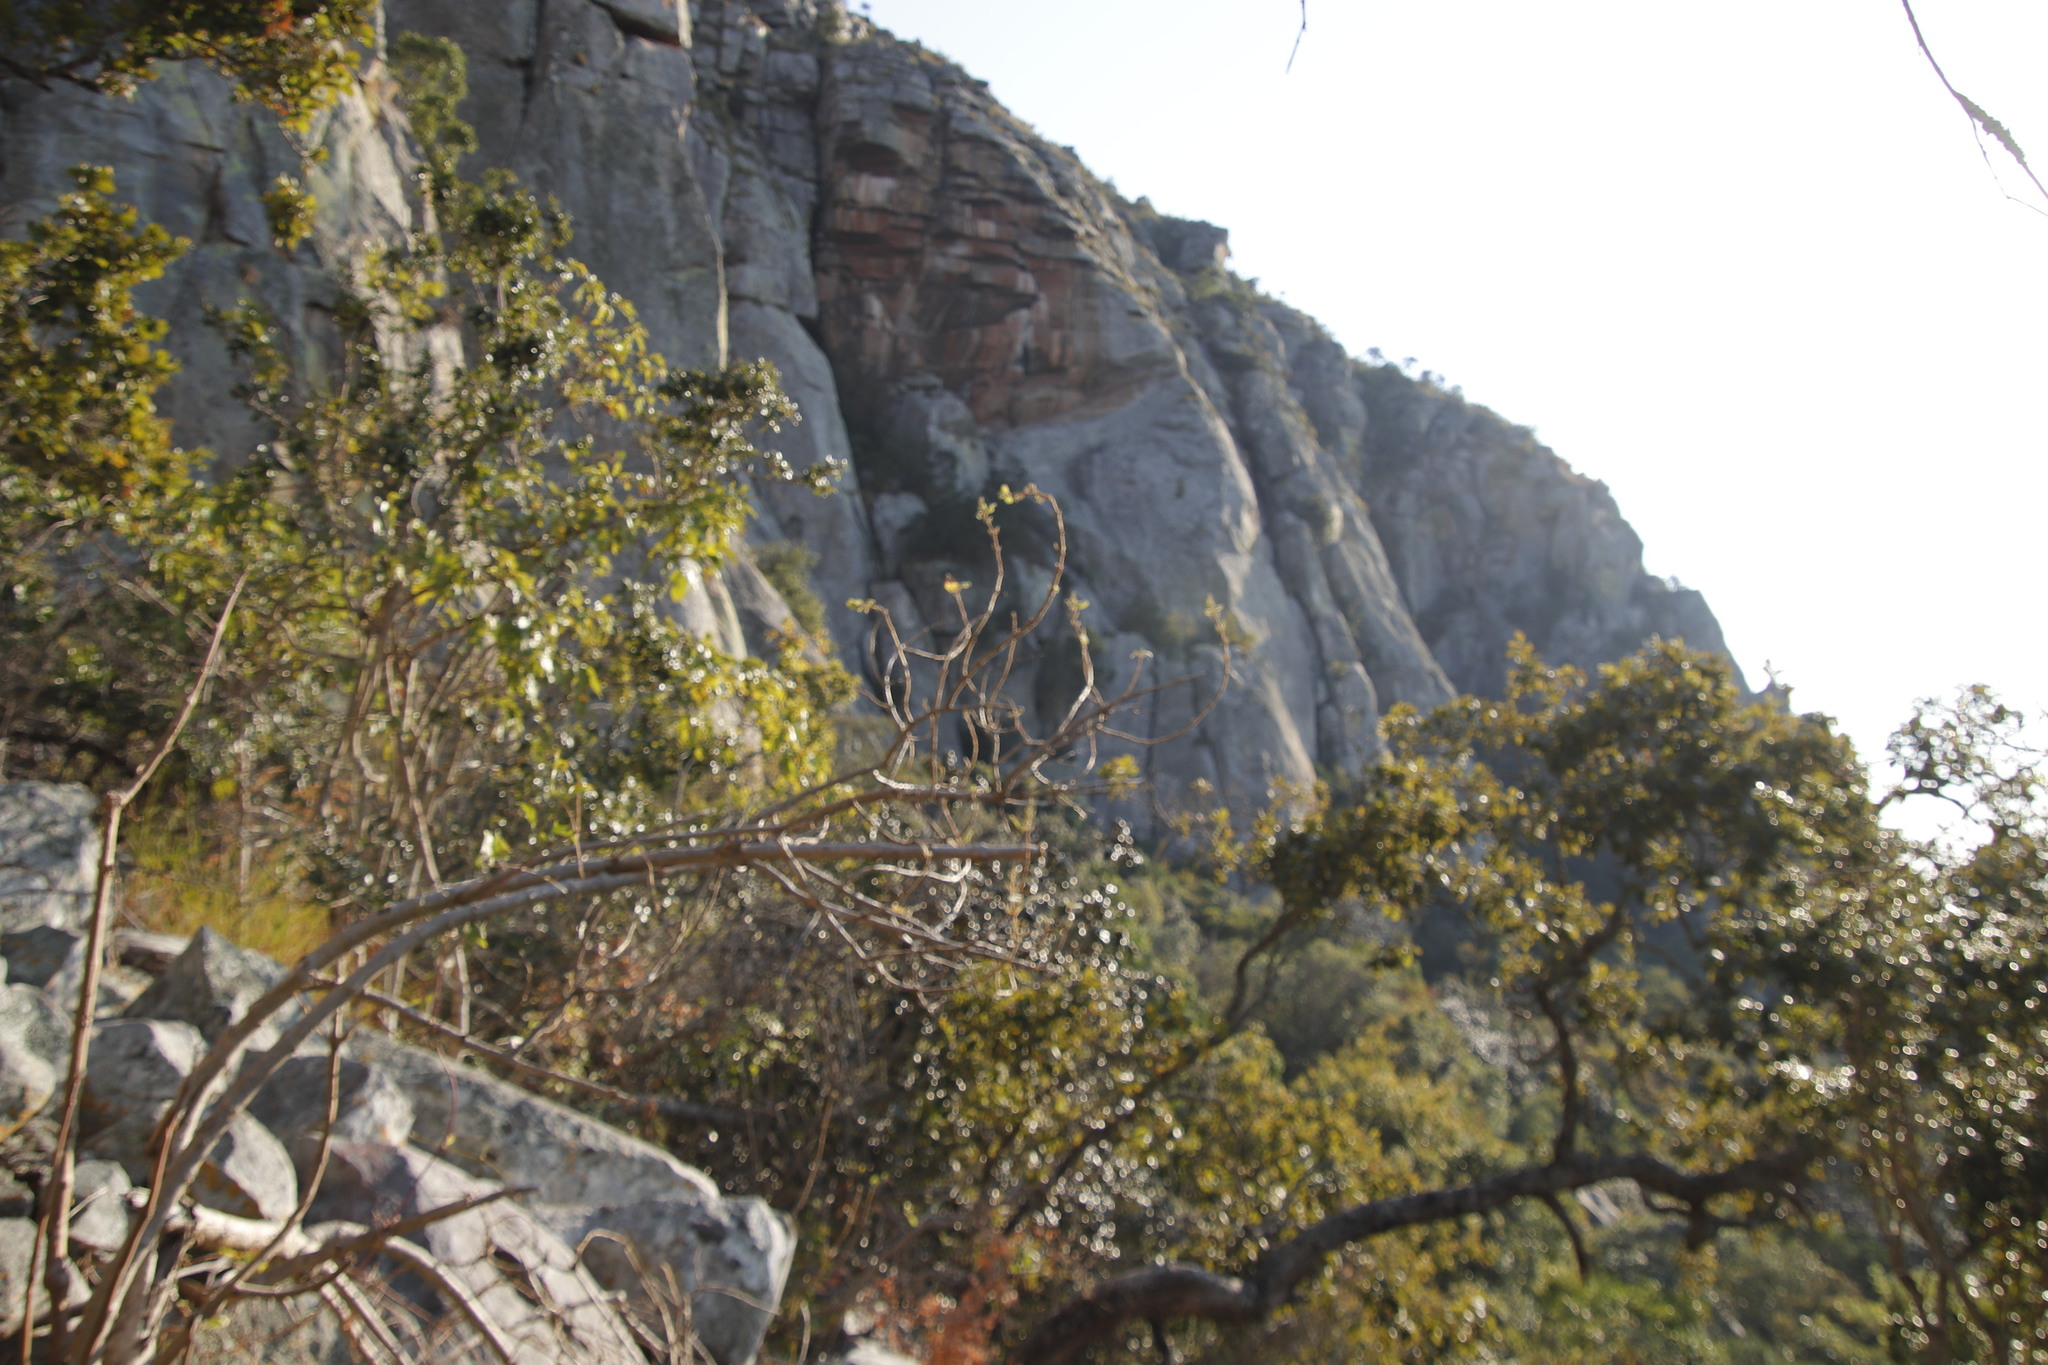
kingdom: Plantae
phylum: Tracheophyta
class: Magnoliopsida
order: Lamiales
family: Lamiaceae
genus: Tetradenia
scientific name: Tetradenia riparia
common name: Gingerbush
